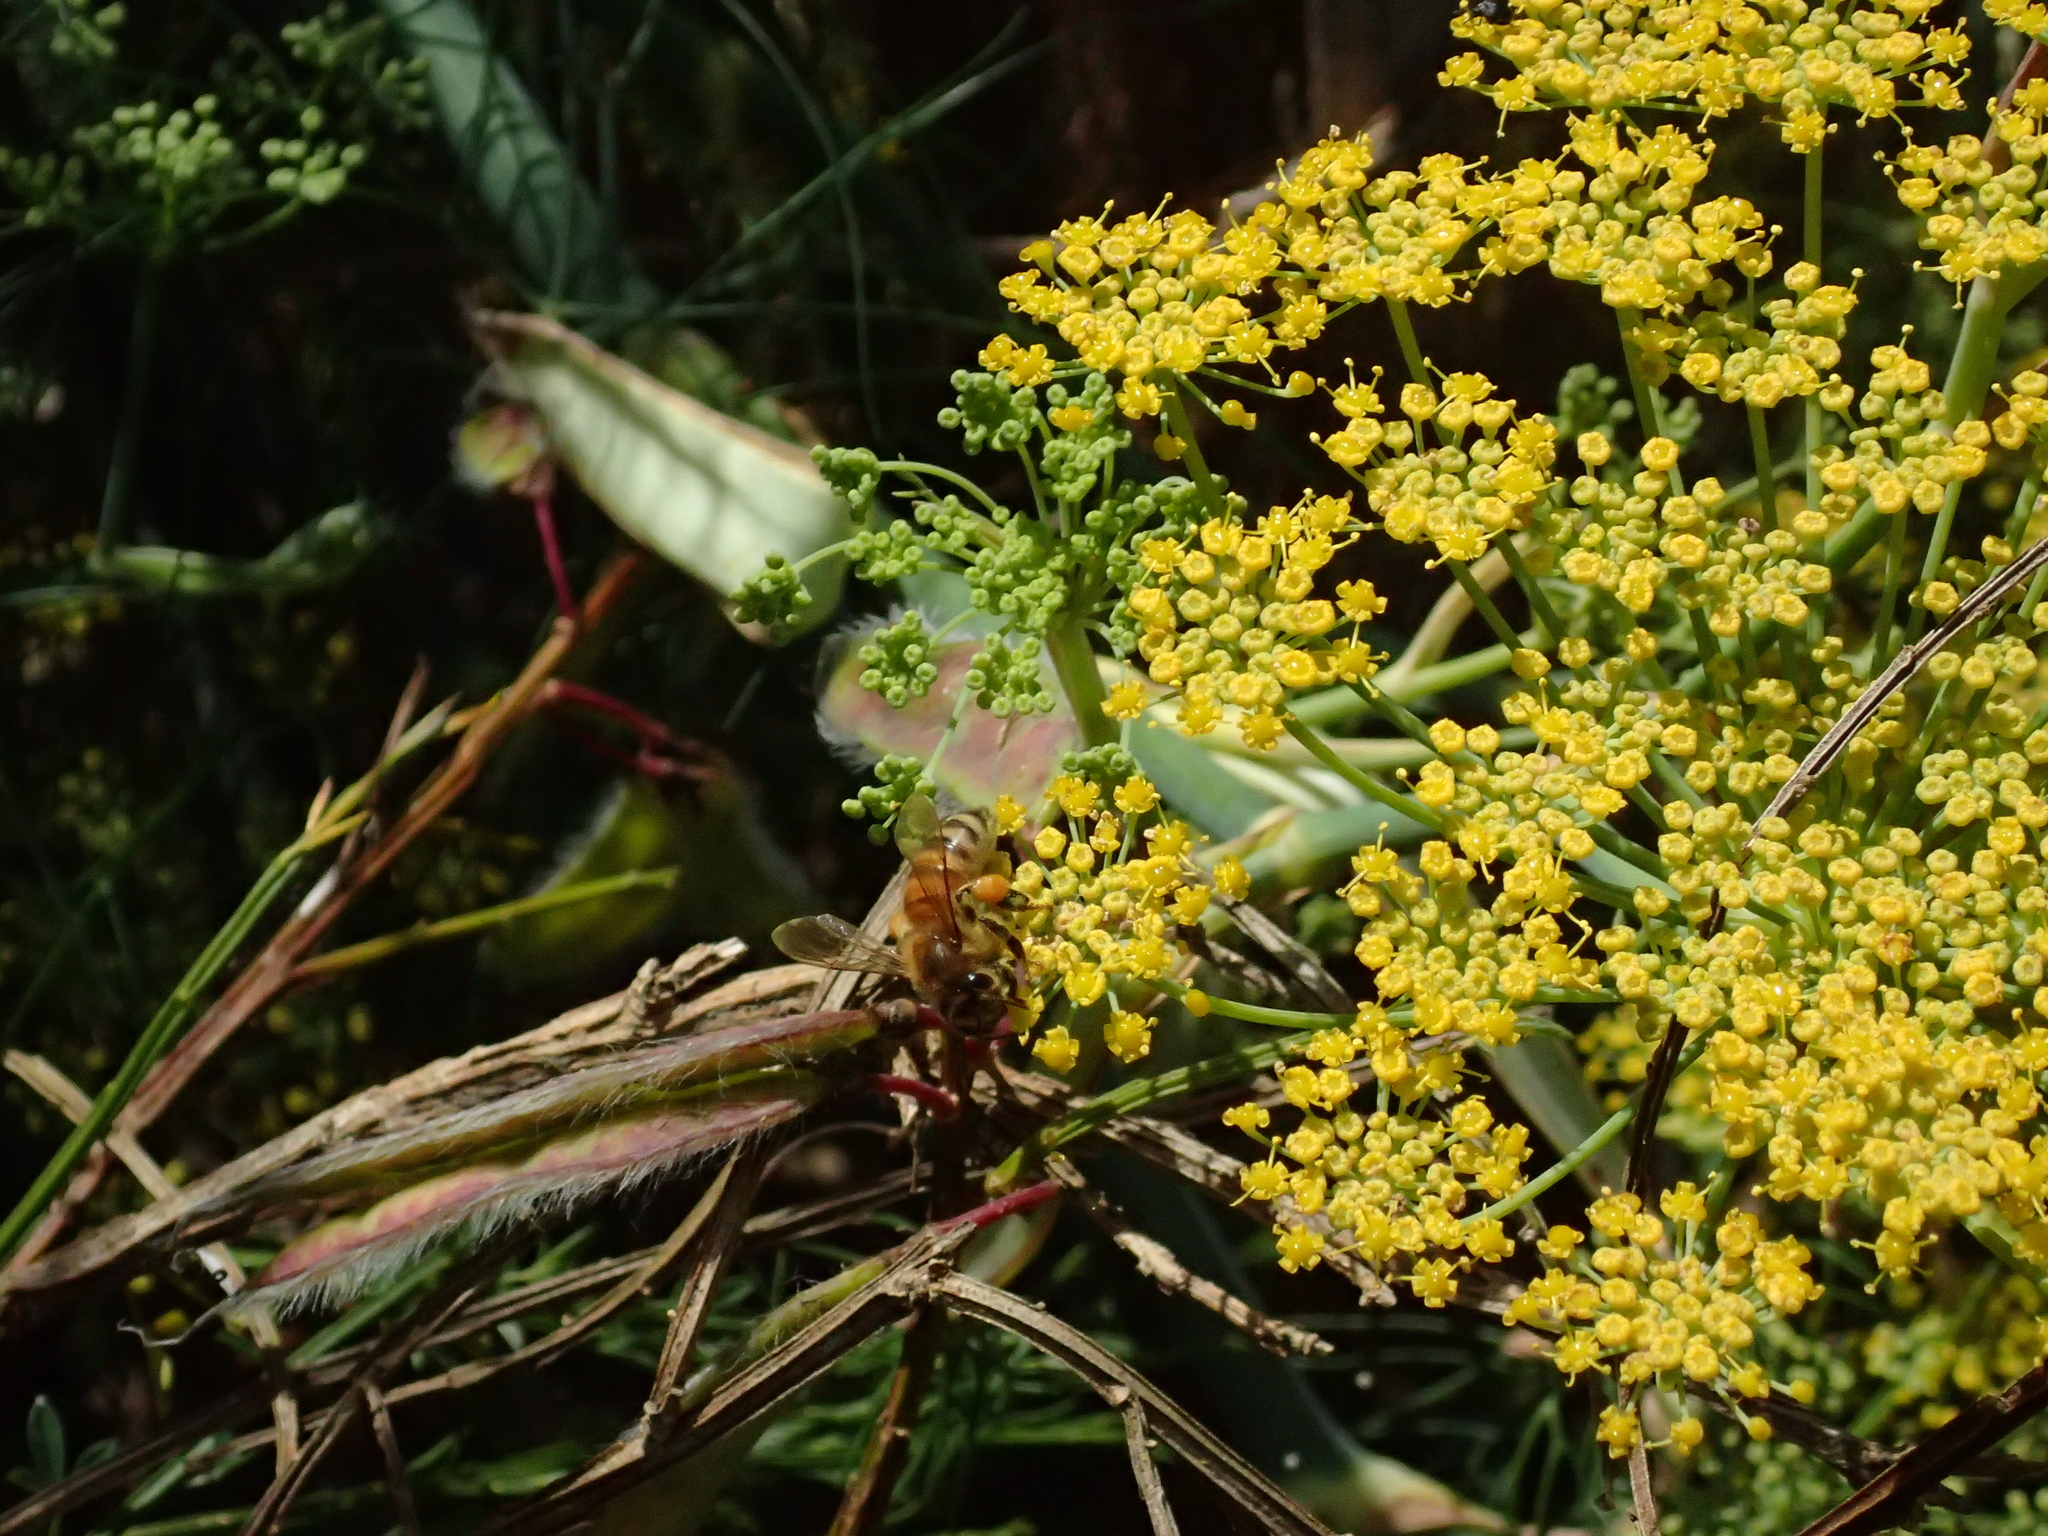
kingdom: Animalia
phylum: Arthropoda
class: Insecta
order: Hymenoptera
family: Apidae
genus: Apis
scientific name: Apis mellifera
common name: Honey bee
